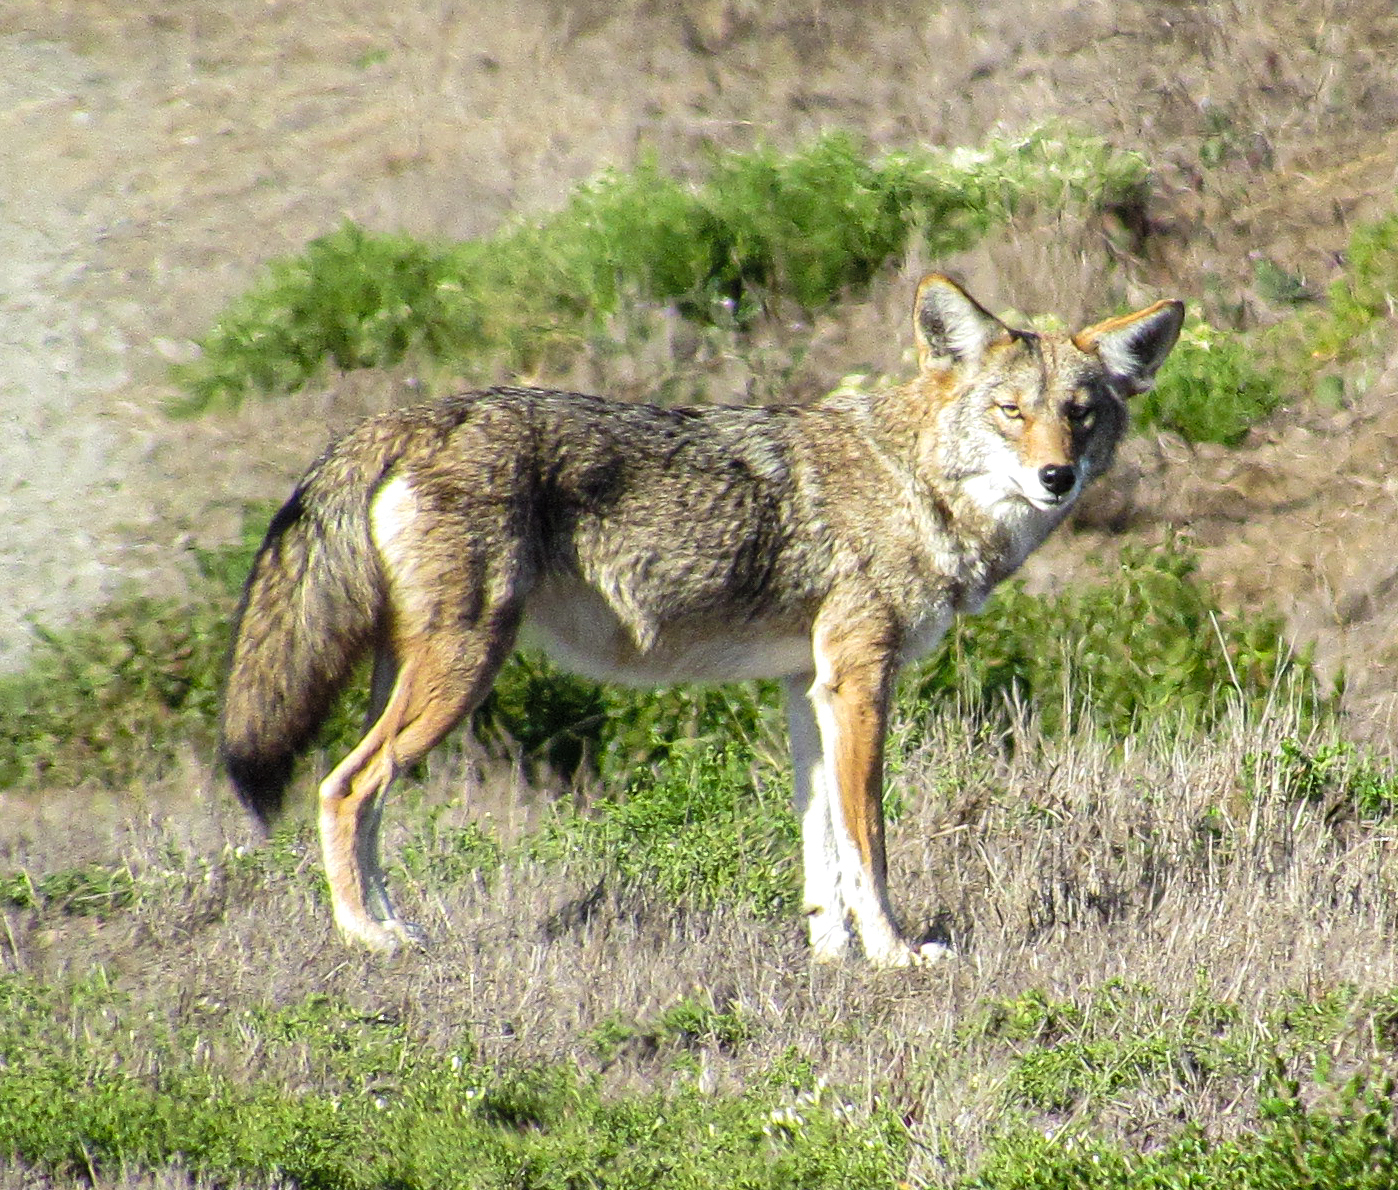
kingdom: Animalia
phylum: Chordata
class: Mammalia
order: Carnivora
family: Canidae
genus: Canis
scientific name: Canis latrans
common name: Coyote
